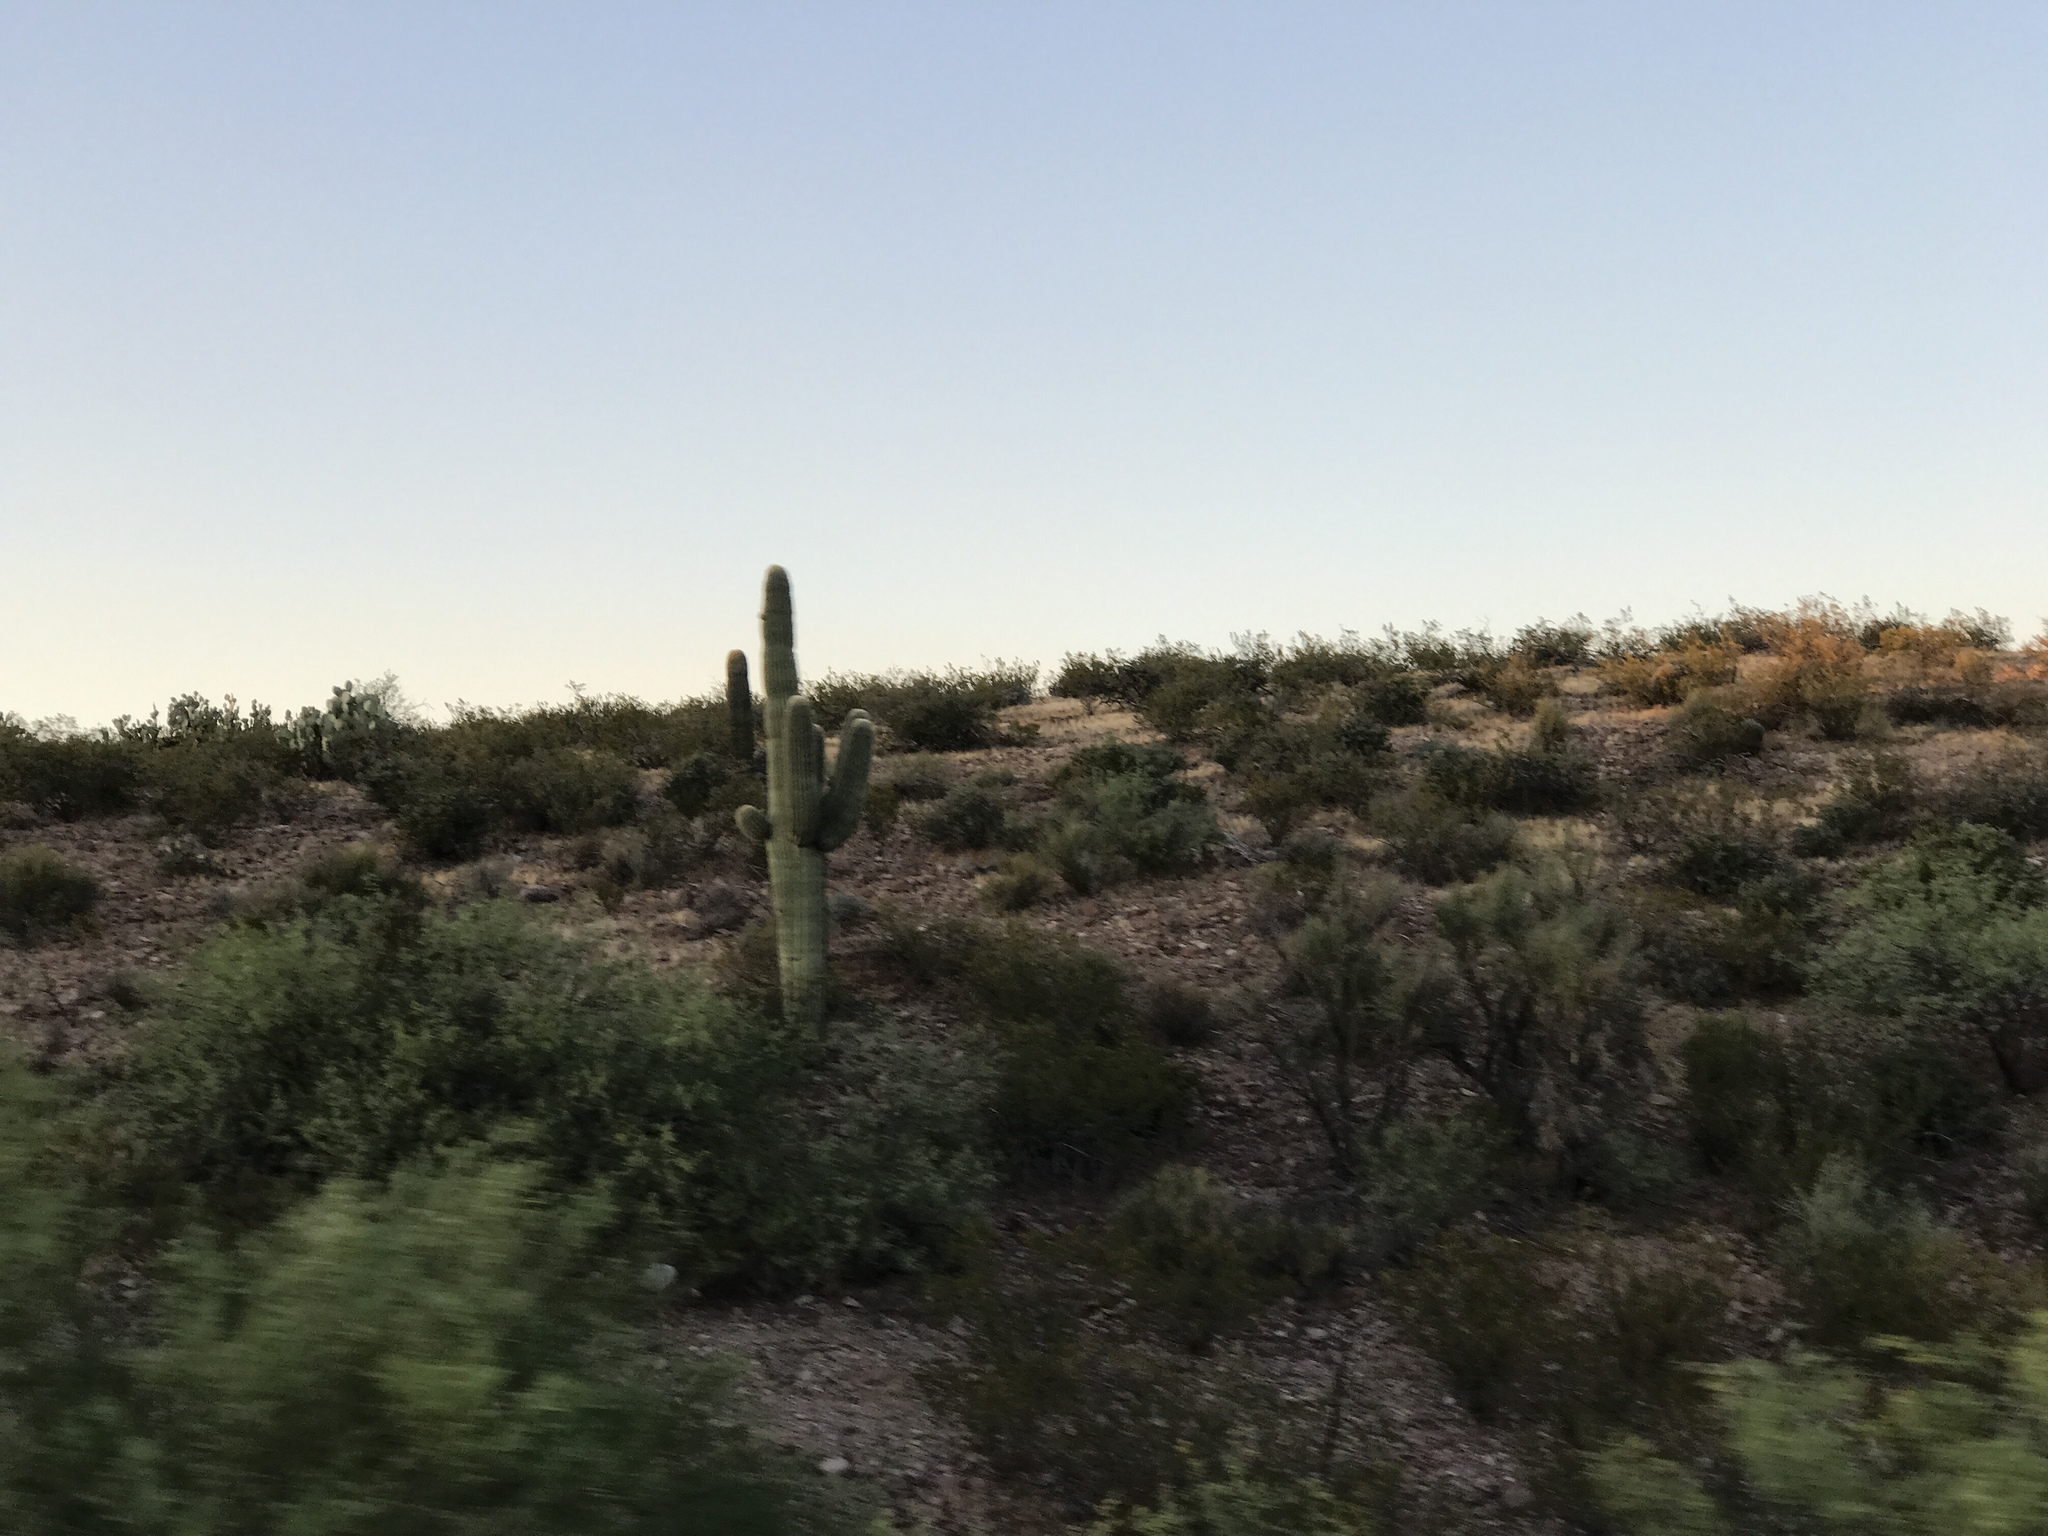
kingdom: Plantae
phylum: Tracheophyta
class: Magnoliopsida
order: Caryophyllales
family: Cactaceae
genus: Carnegiea
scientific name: Carnegiea gigantea
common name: Saguaro
